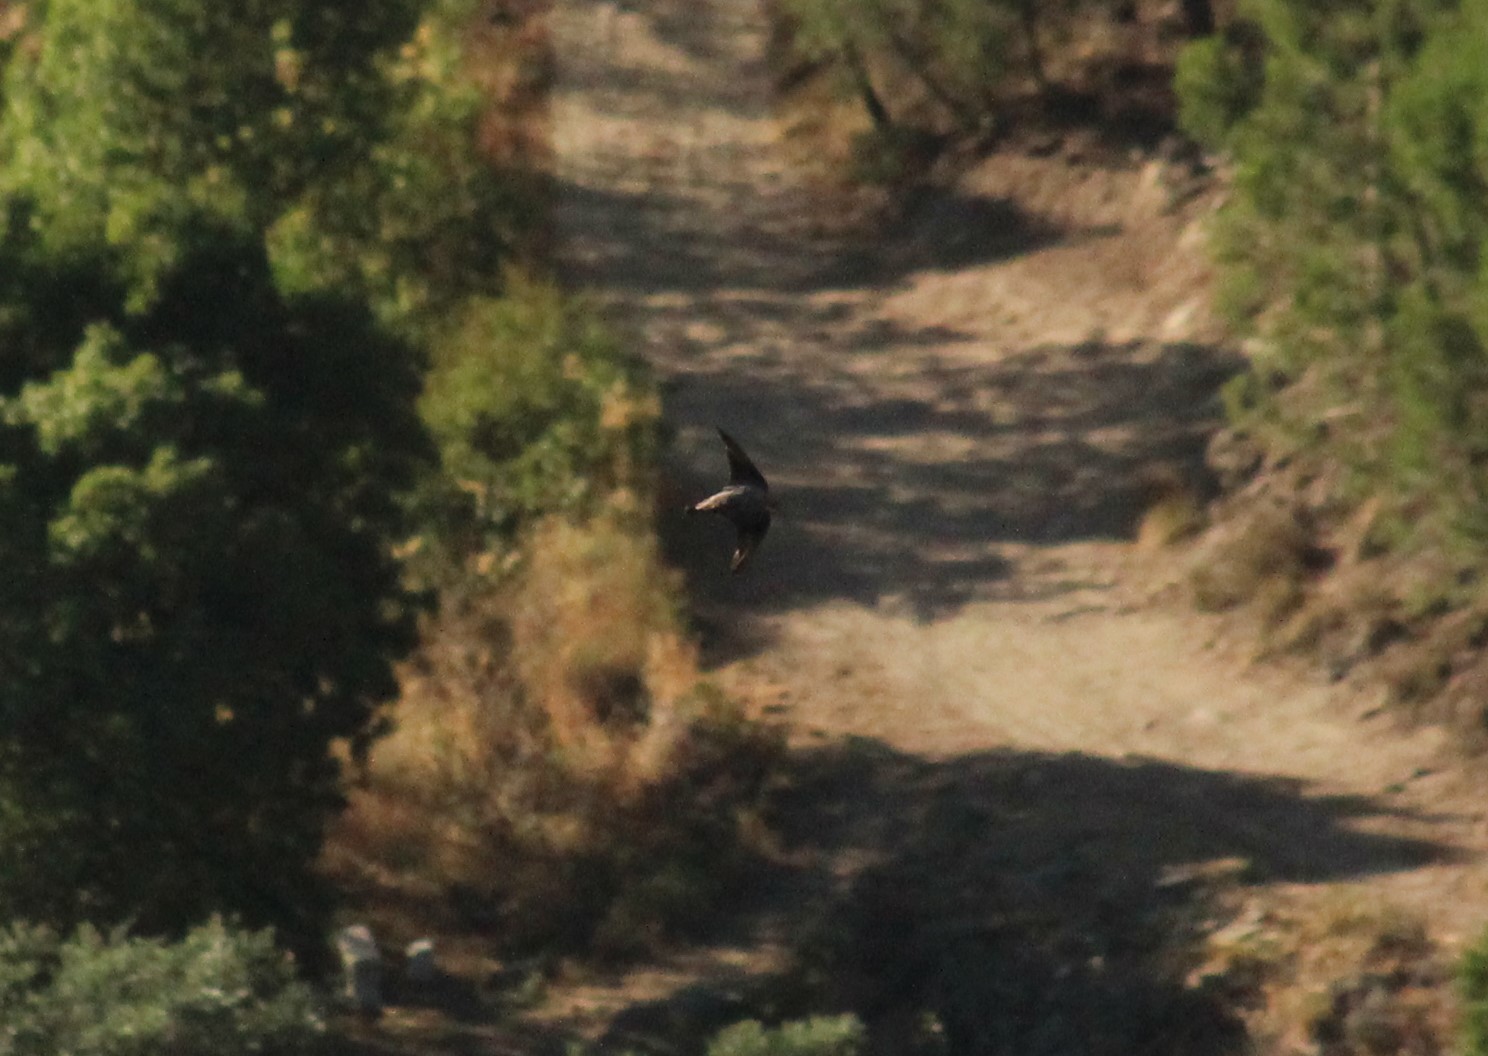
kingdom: Animalia
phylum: Chordata
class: Aves
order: Passeriformes
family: Hirundinidae
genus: Ptyonoprogne
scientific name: Ptyonoprogne rupestris
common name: Eurasian crag martin
